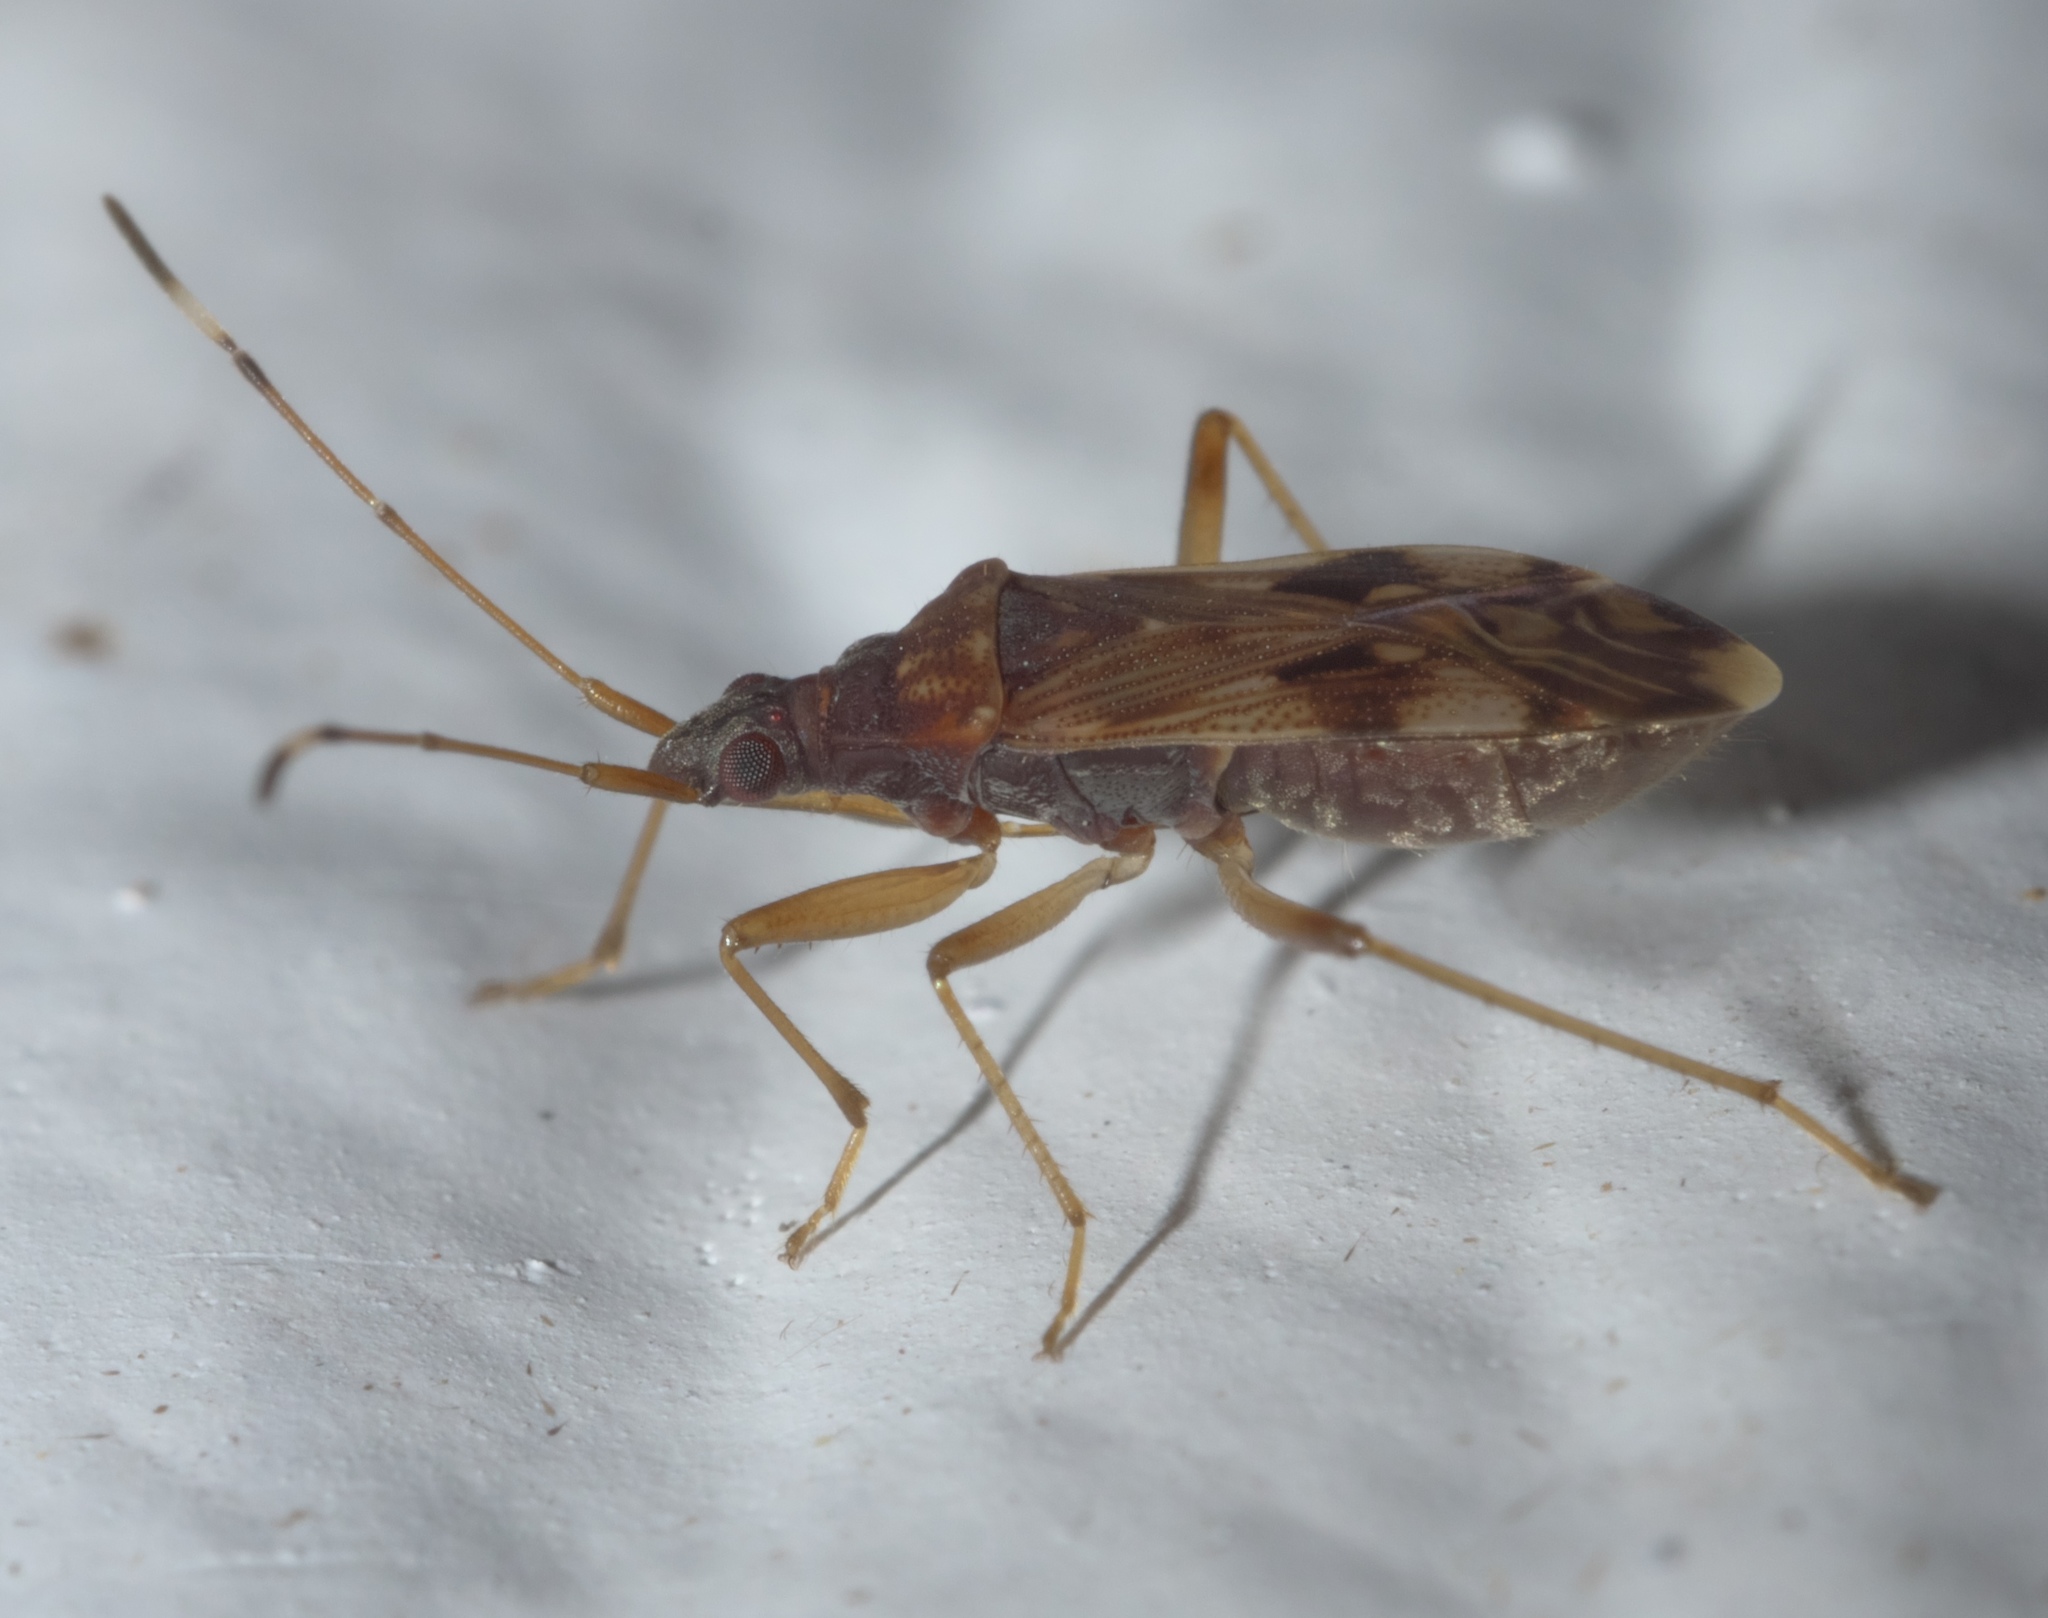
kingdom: Animalia
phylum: Arthropoda
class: Insecta
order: Hemiptera
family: Rhyparochromidae
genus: Ozophora
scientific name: Ozophora picturata
